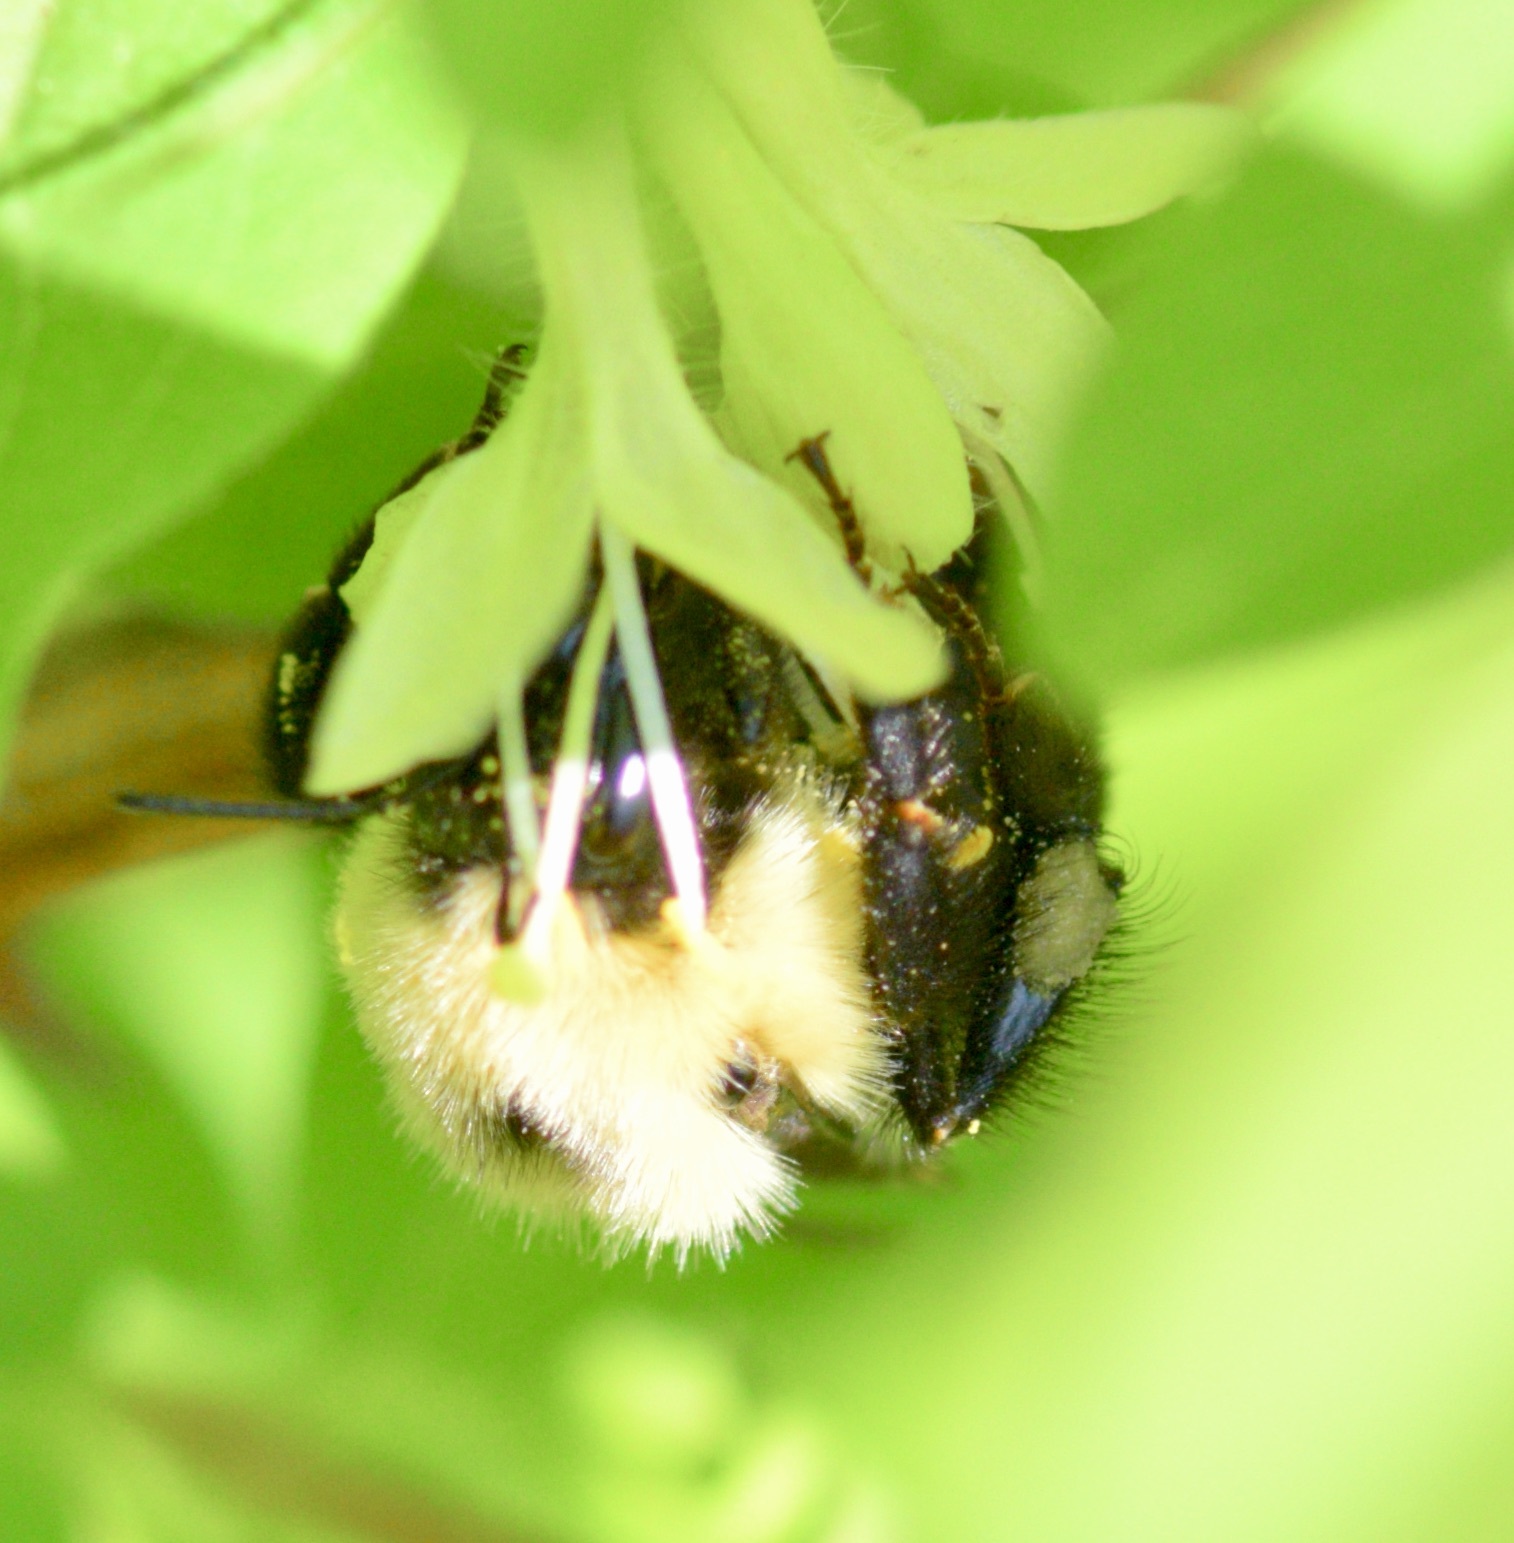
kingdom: Animalia
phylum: Arthropoda
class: Insecta
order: Hymenoptera
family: Apidae
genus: Bombus
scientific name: Bombus bimaculatus
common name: Two-spotted bumble bee
